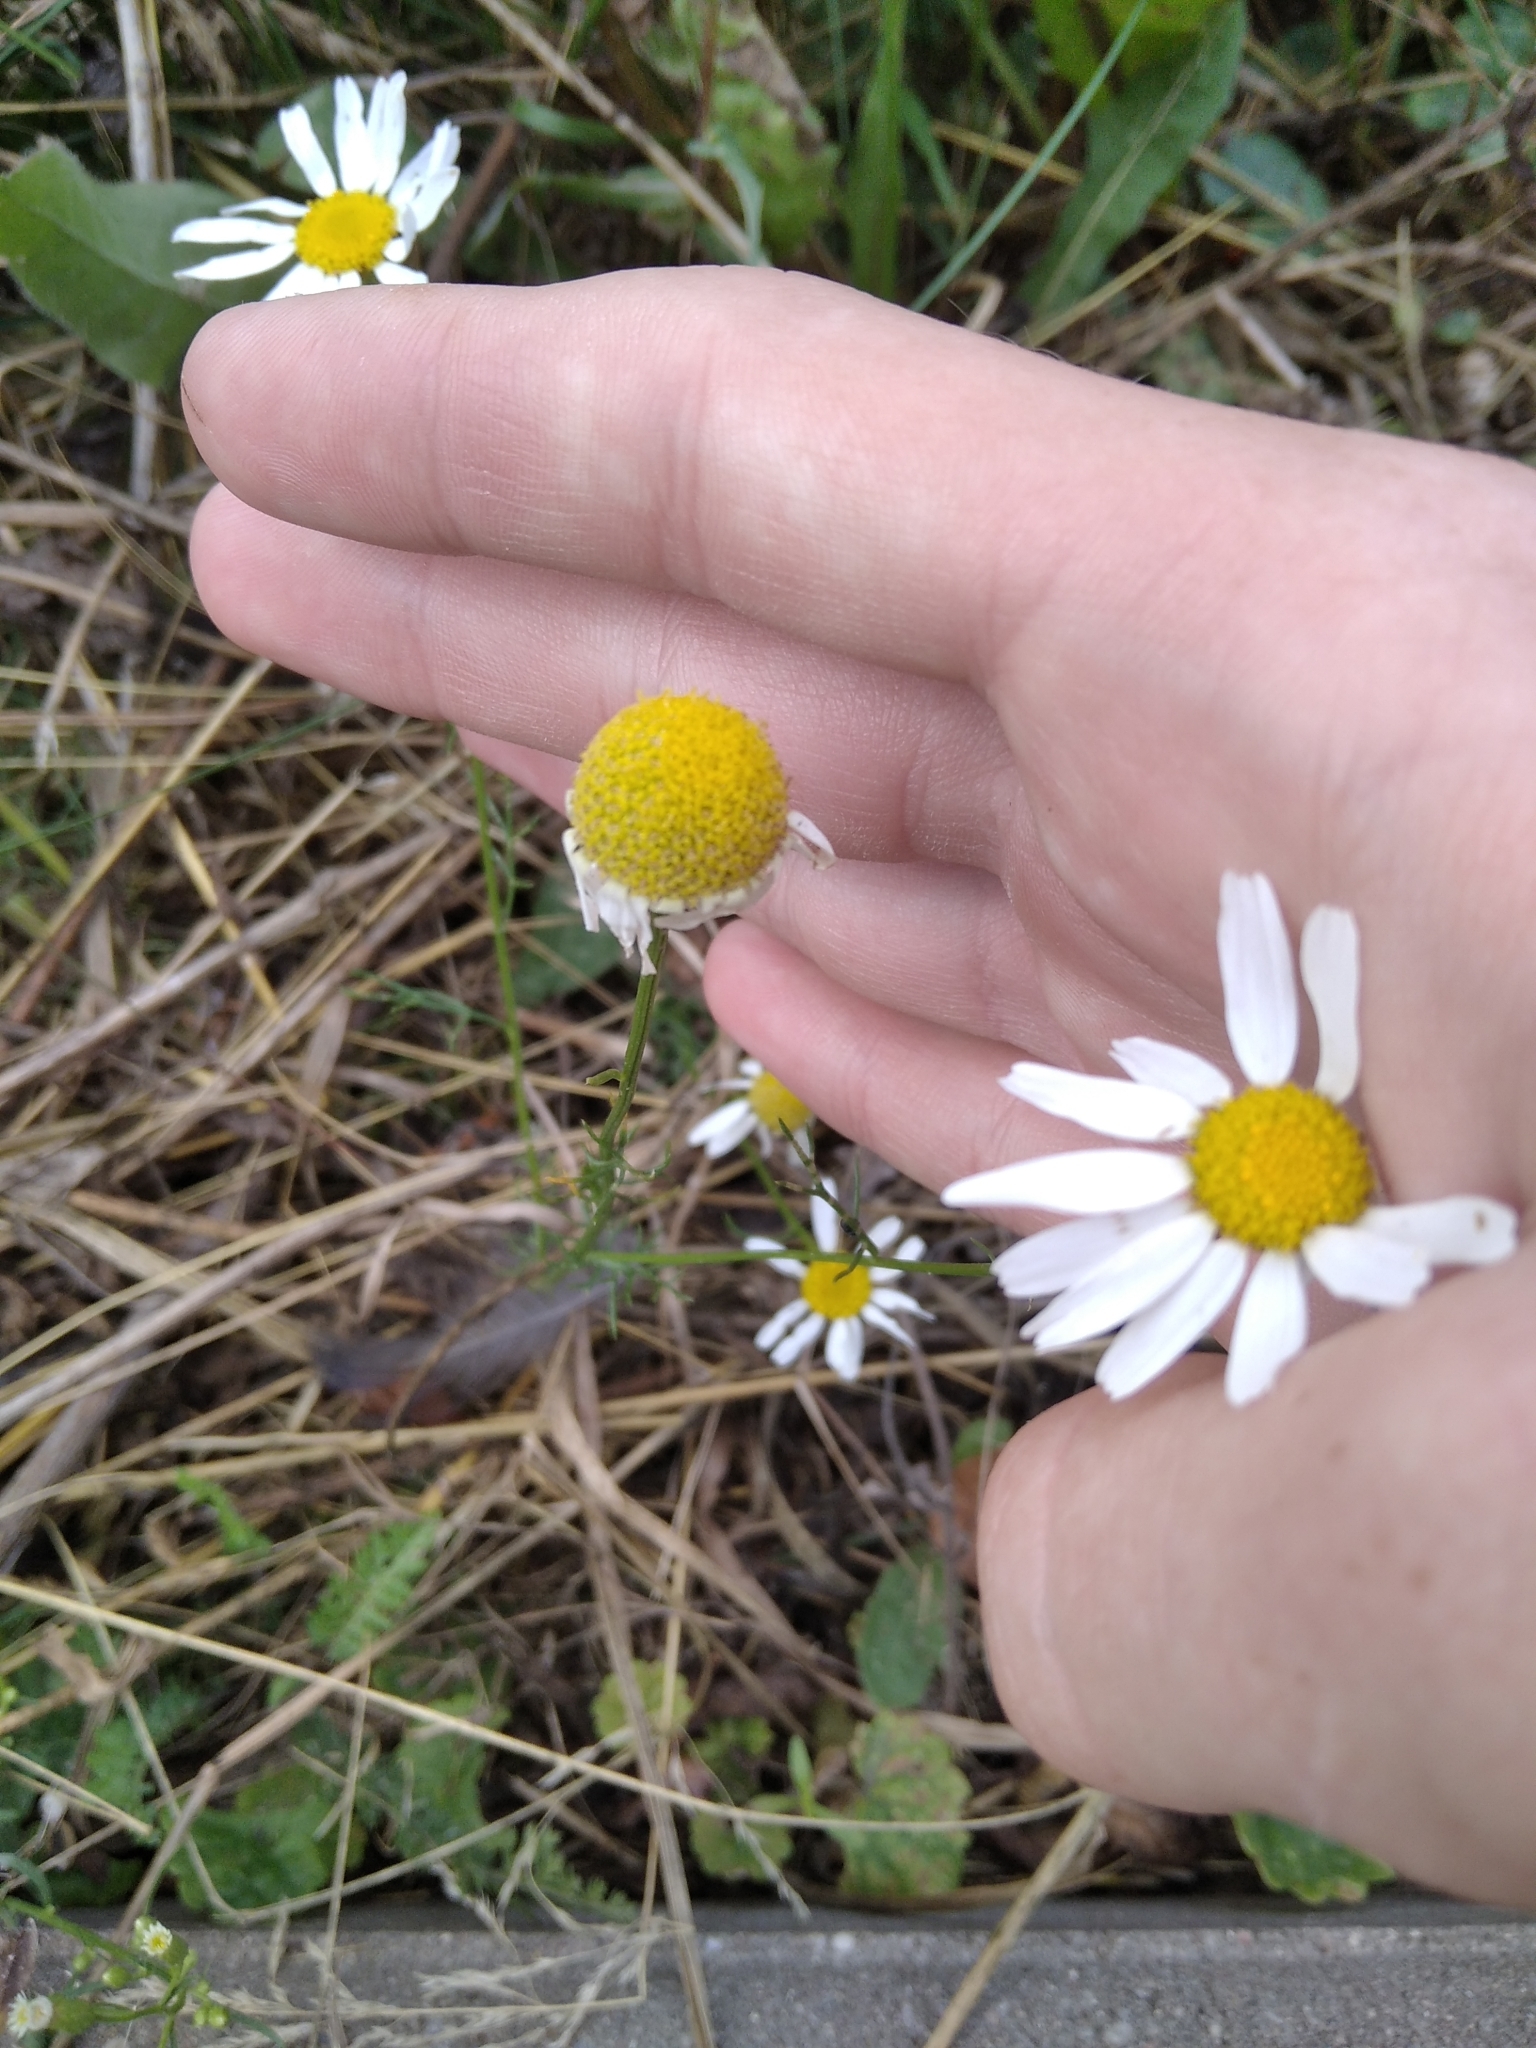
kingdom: Plantae
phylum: Tracheophyta
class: Magnoliopsida
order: Asterales
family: Asteraceae
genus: Tripleurospermum
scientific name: Tripleurospermum inodorum
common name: Scentless mayweed
